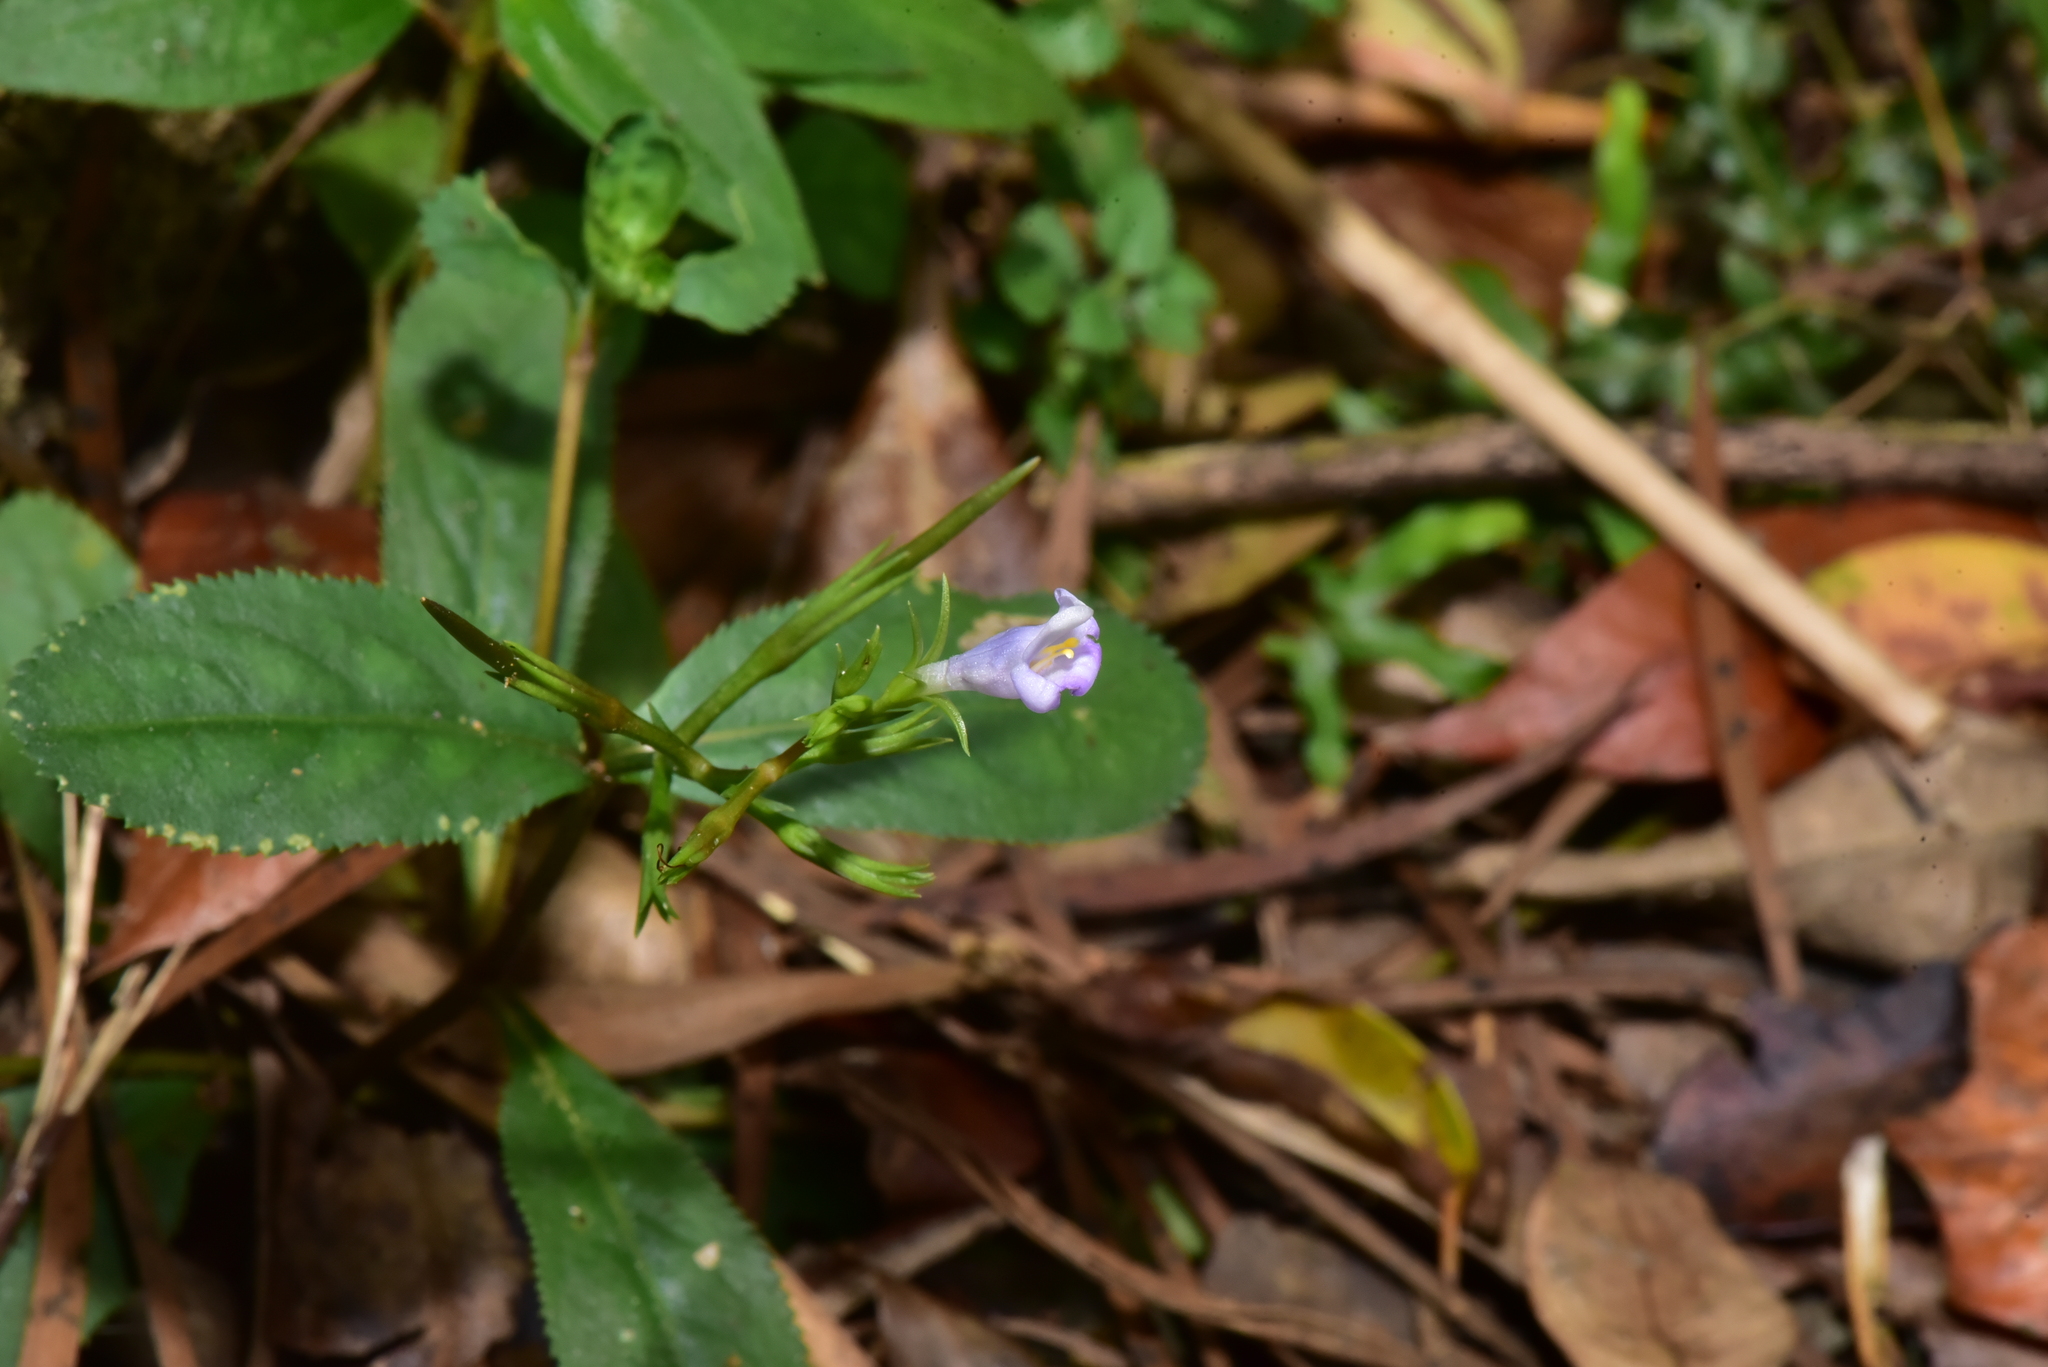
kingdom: Plantae
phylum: Tracheophyta
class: Magnoliopsida
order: Lamiales
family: Linderniaceae
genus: Bonnaya
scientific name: Bonnaya ruelloides
